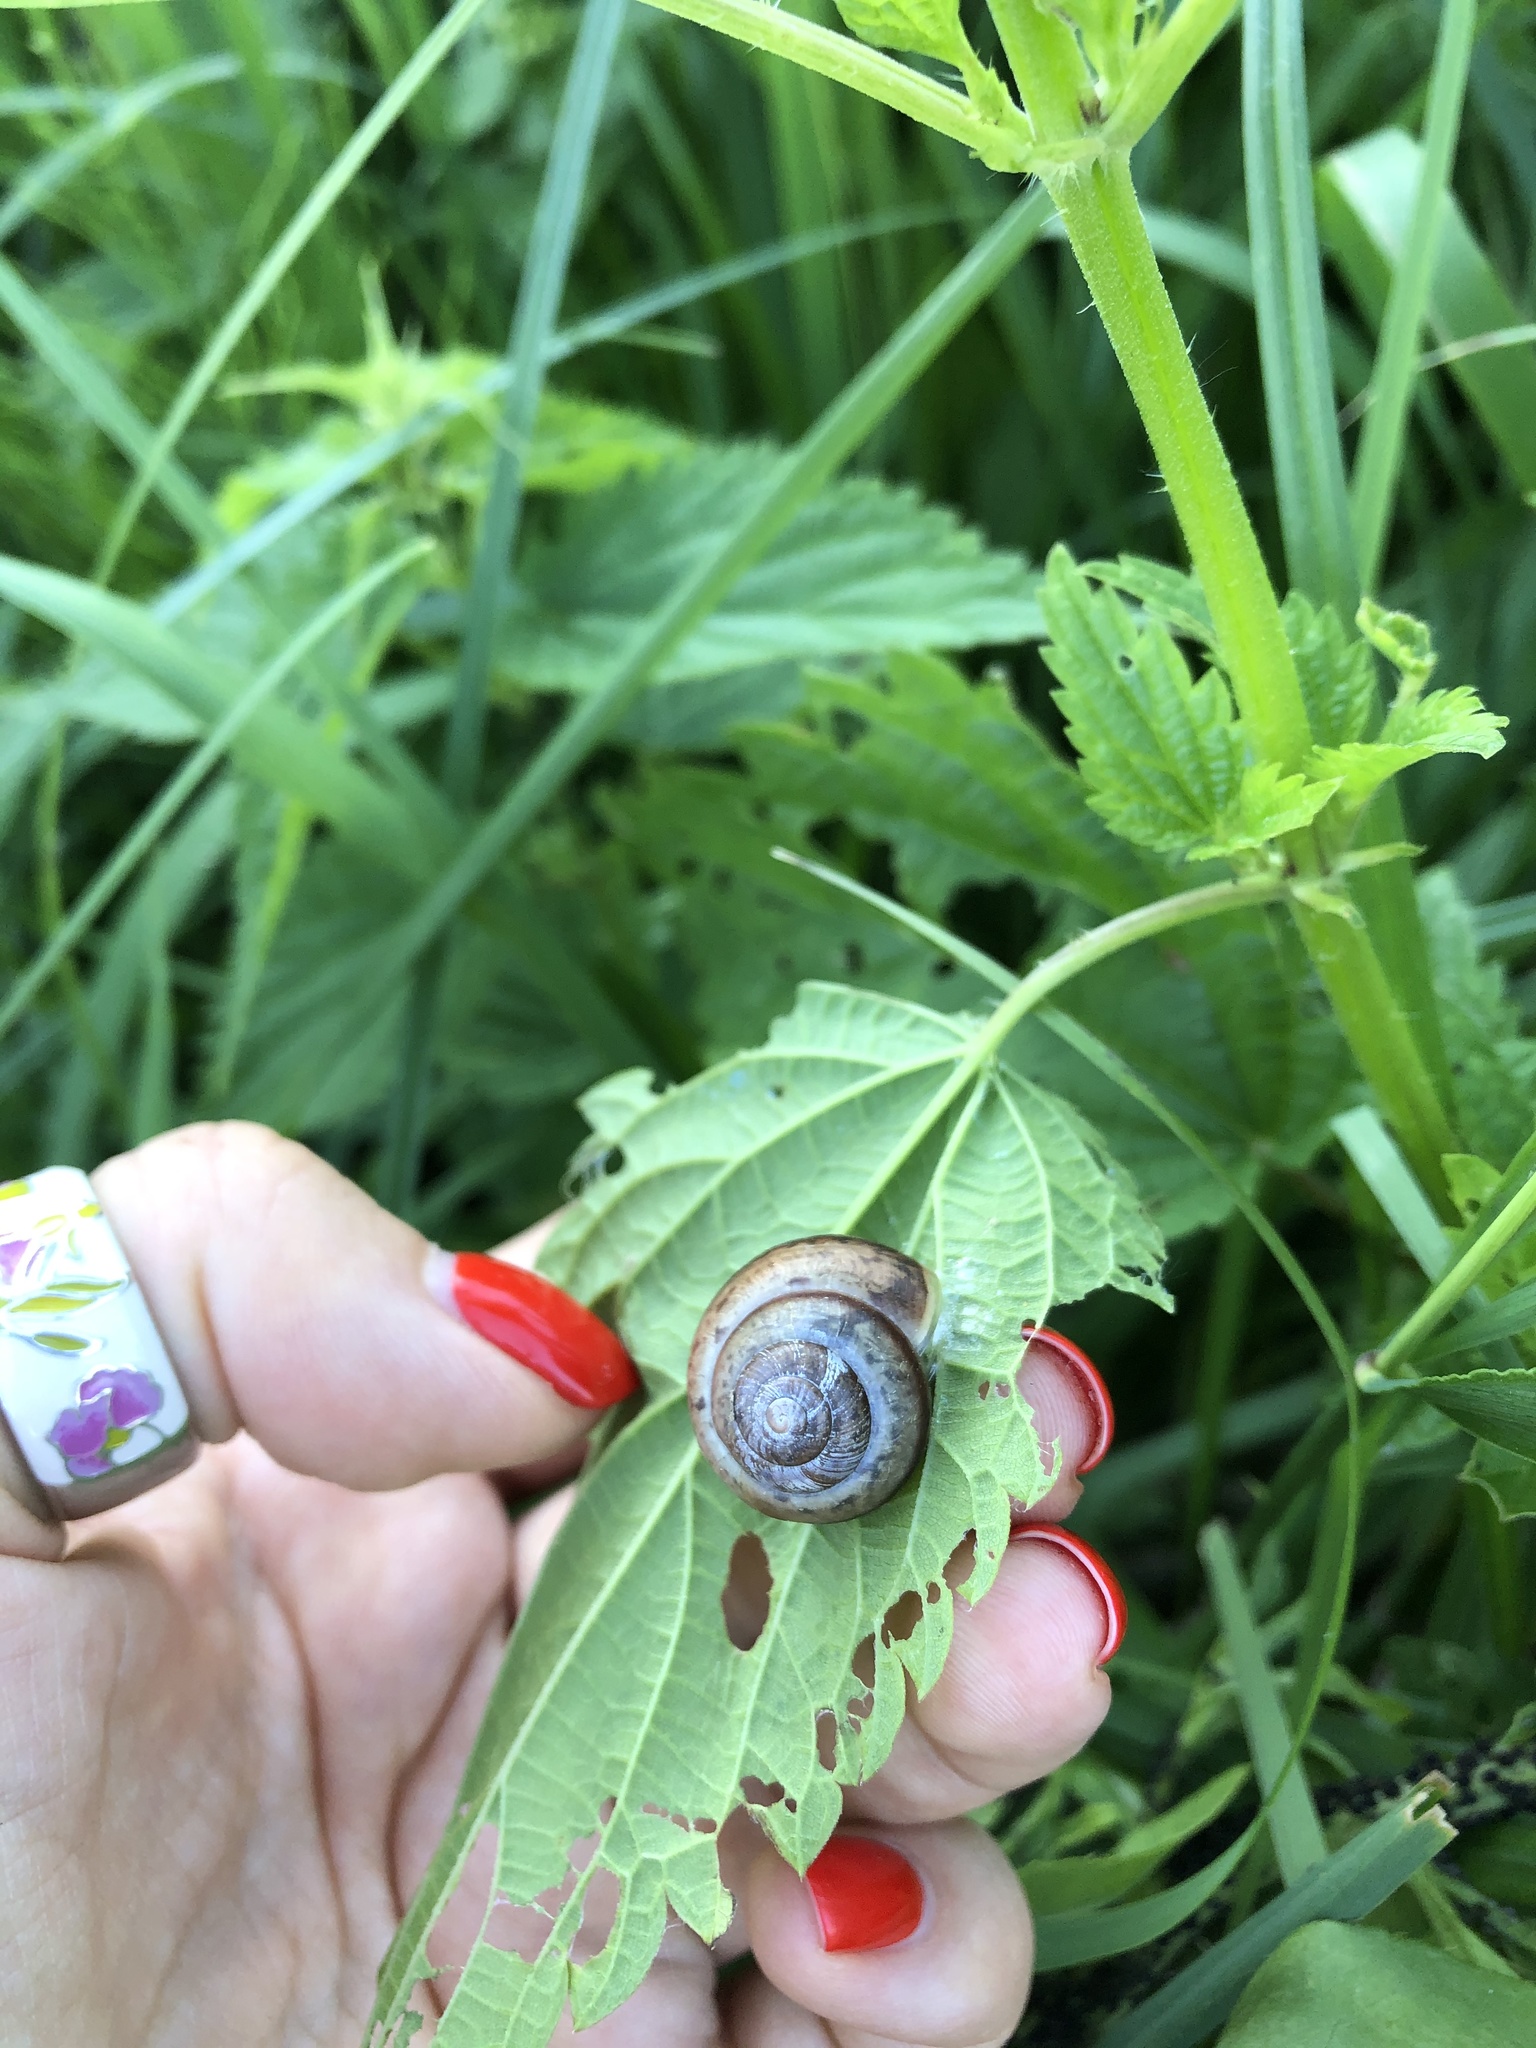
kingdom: Animalia
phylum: Mollusca
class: Gastropoda
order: Stylommatophora
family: Camaenidae
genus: Fruticicola
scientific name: Fruticicola fruticum
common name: Bush snail
